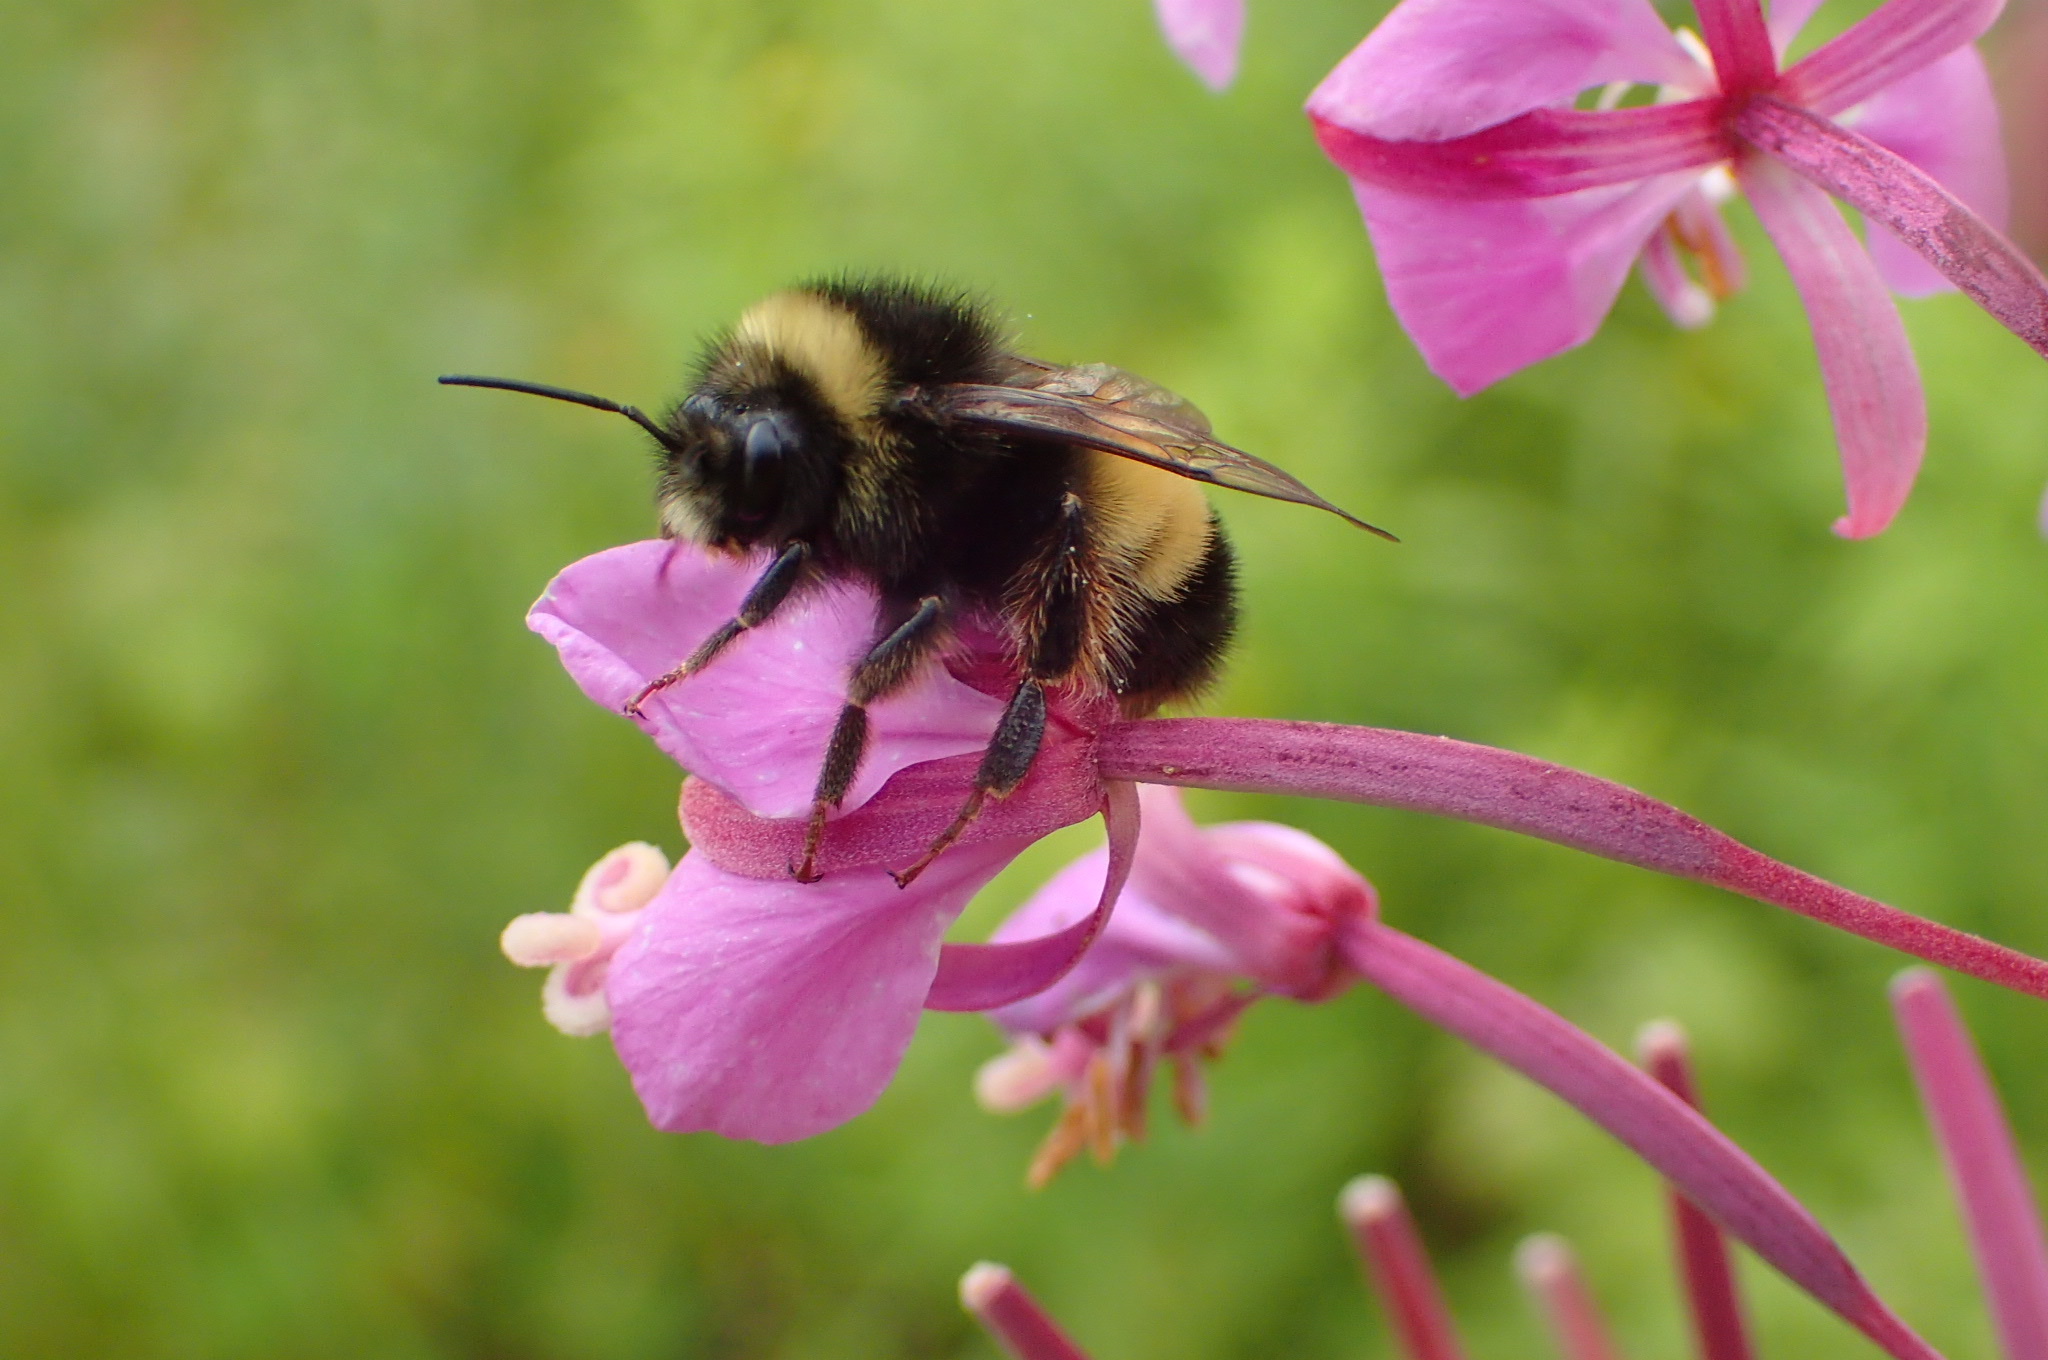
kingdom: Animalia
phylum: Arthropoda
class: Insecta
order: Hymenoptera
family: Apidae
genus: Bombus
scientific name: Bombus terricola
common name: Yellow-banded bumble bee
